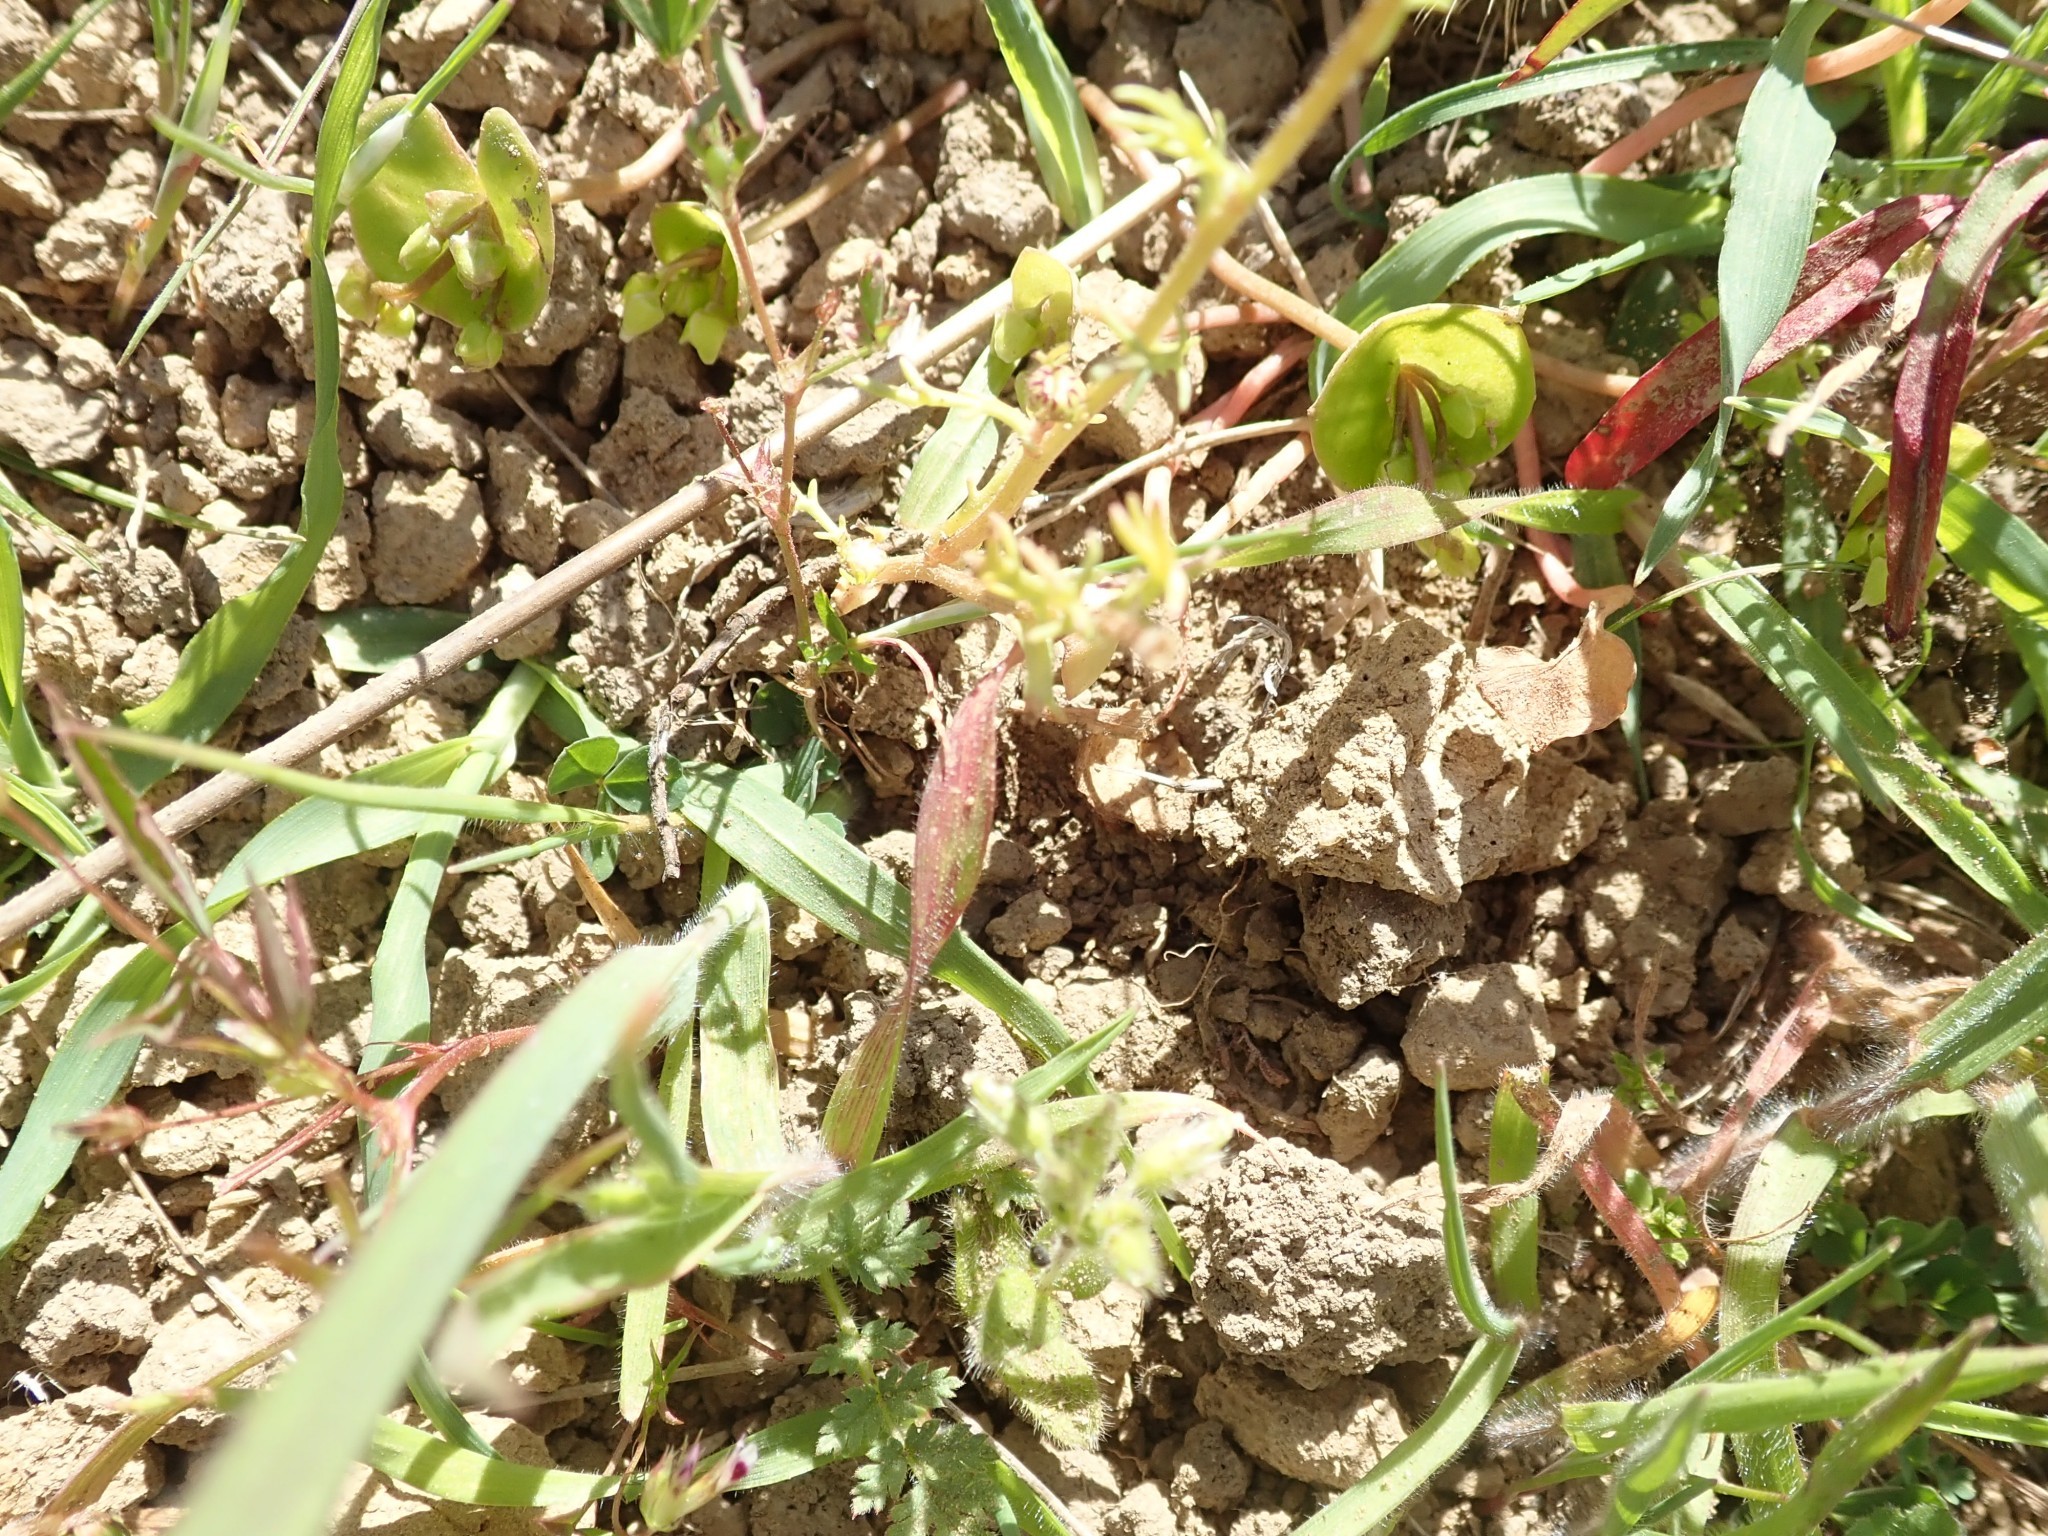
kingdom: Plantae
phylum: Tracheophyta
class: Magnoliopsida
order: Asterales
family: Asteraceae
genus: Blennosperma
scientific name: Blennosperma nanum
